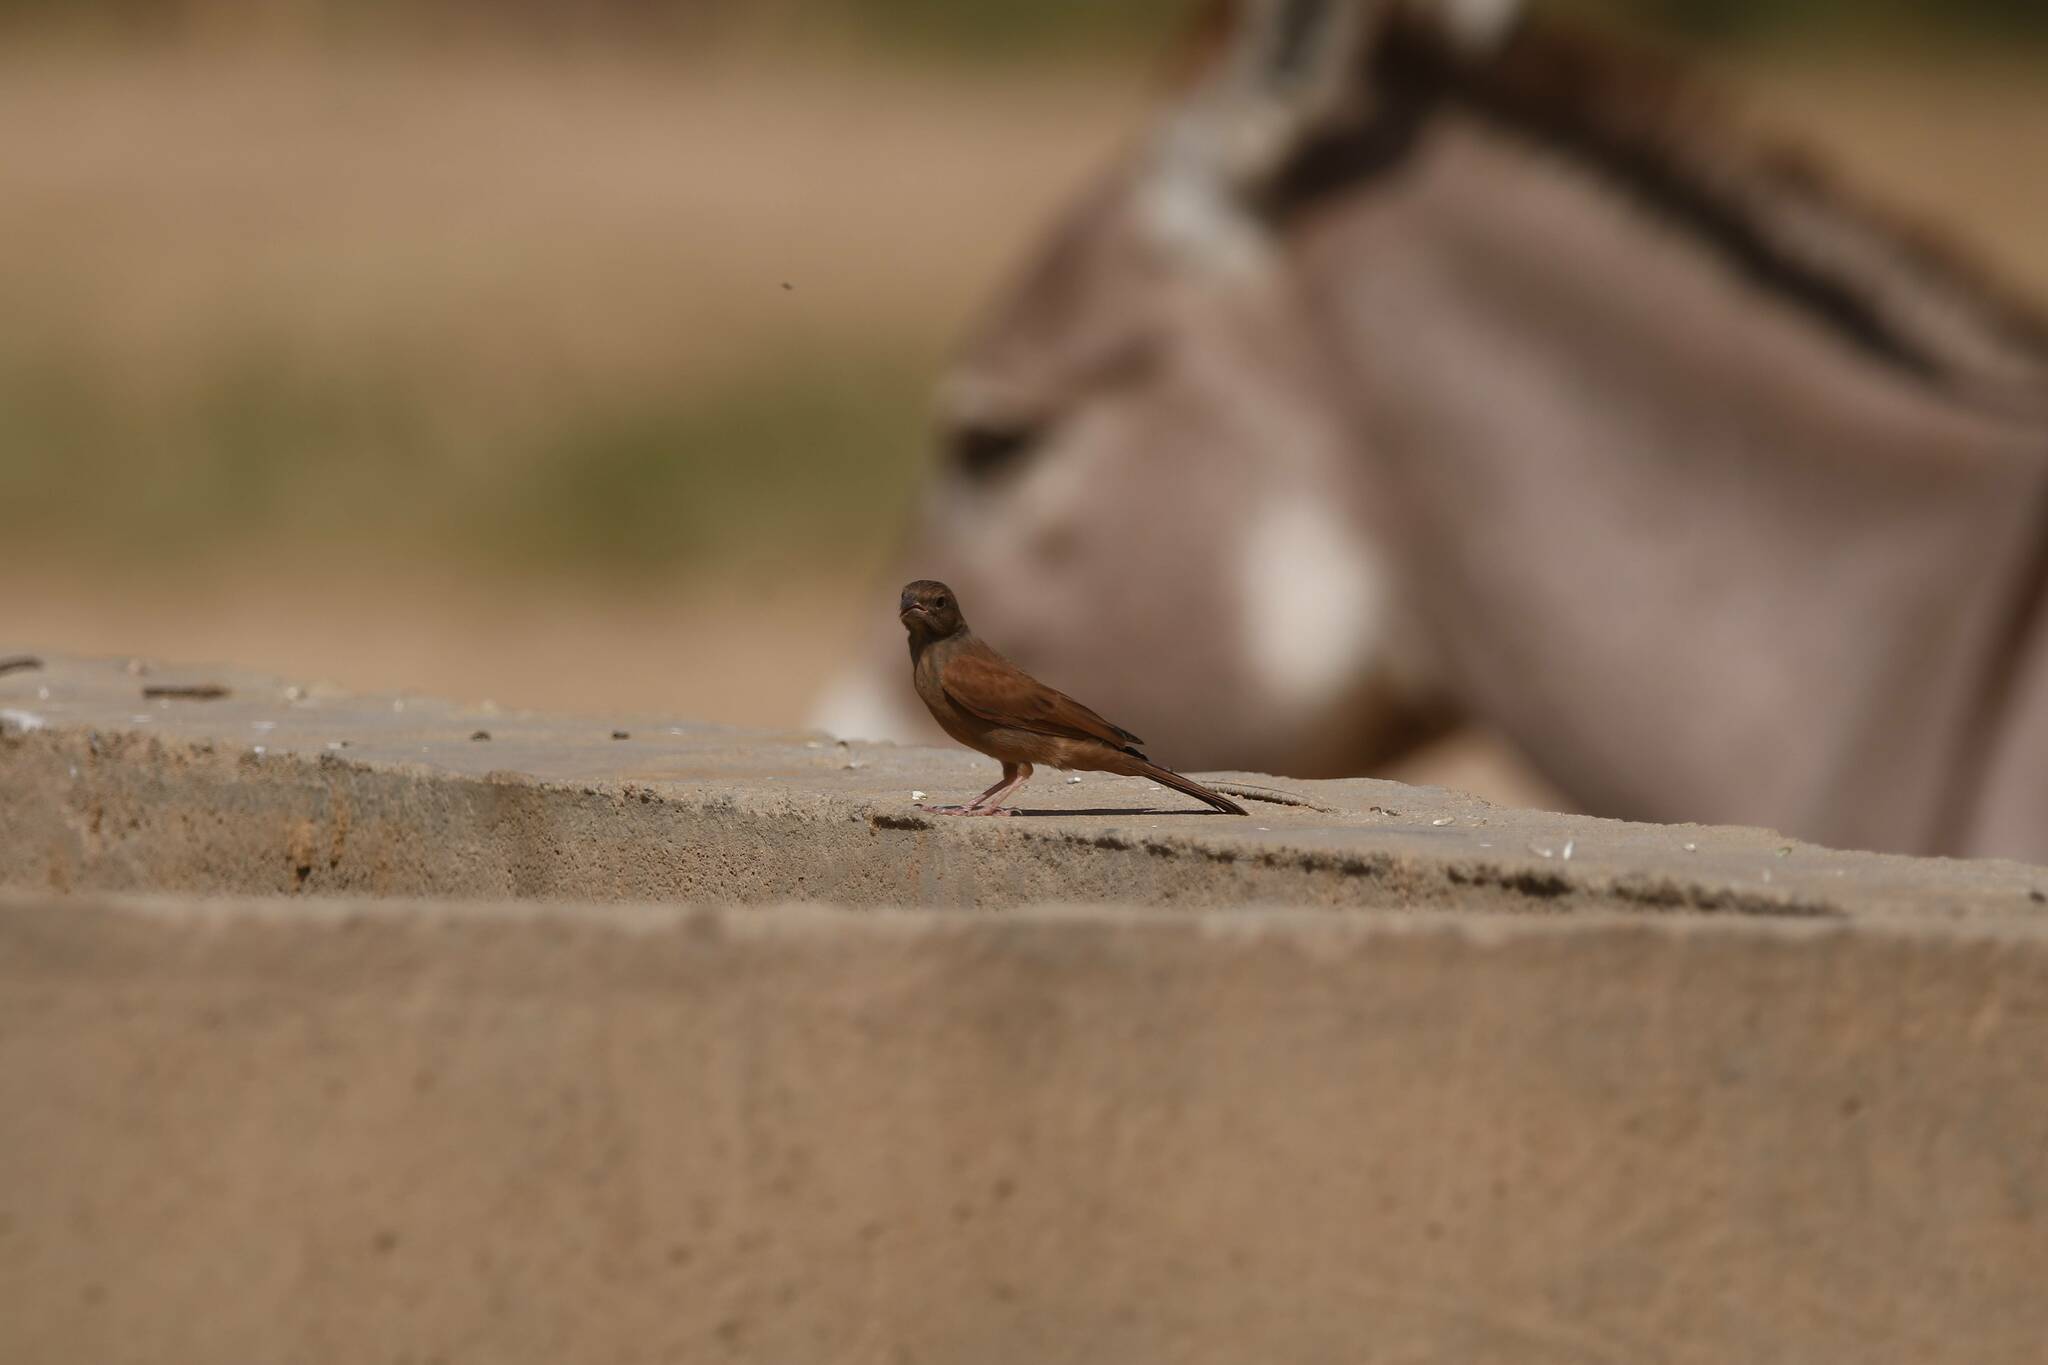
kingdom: Animalia
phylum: Chordata
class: Mammalia
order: Perissodactyla
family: Equidae
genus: Equus
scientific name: Equus asinus
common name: Ass
